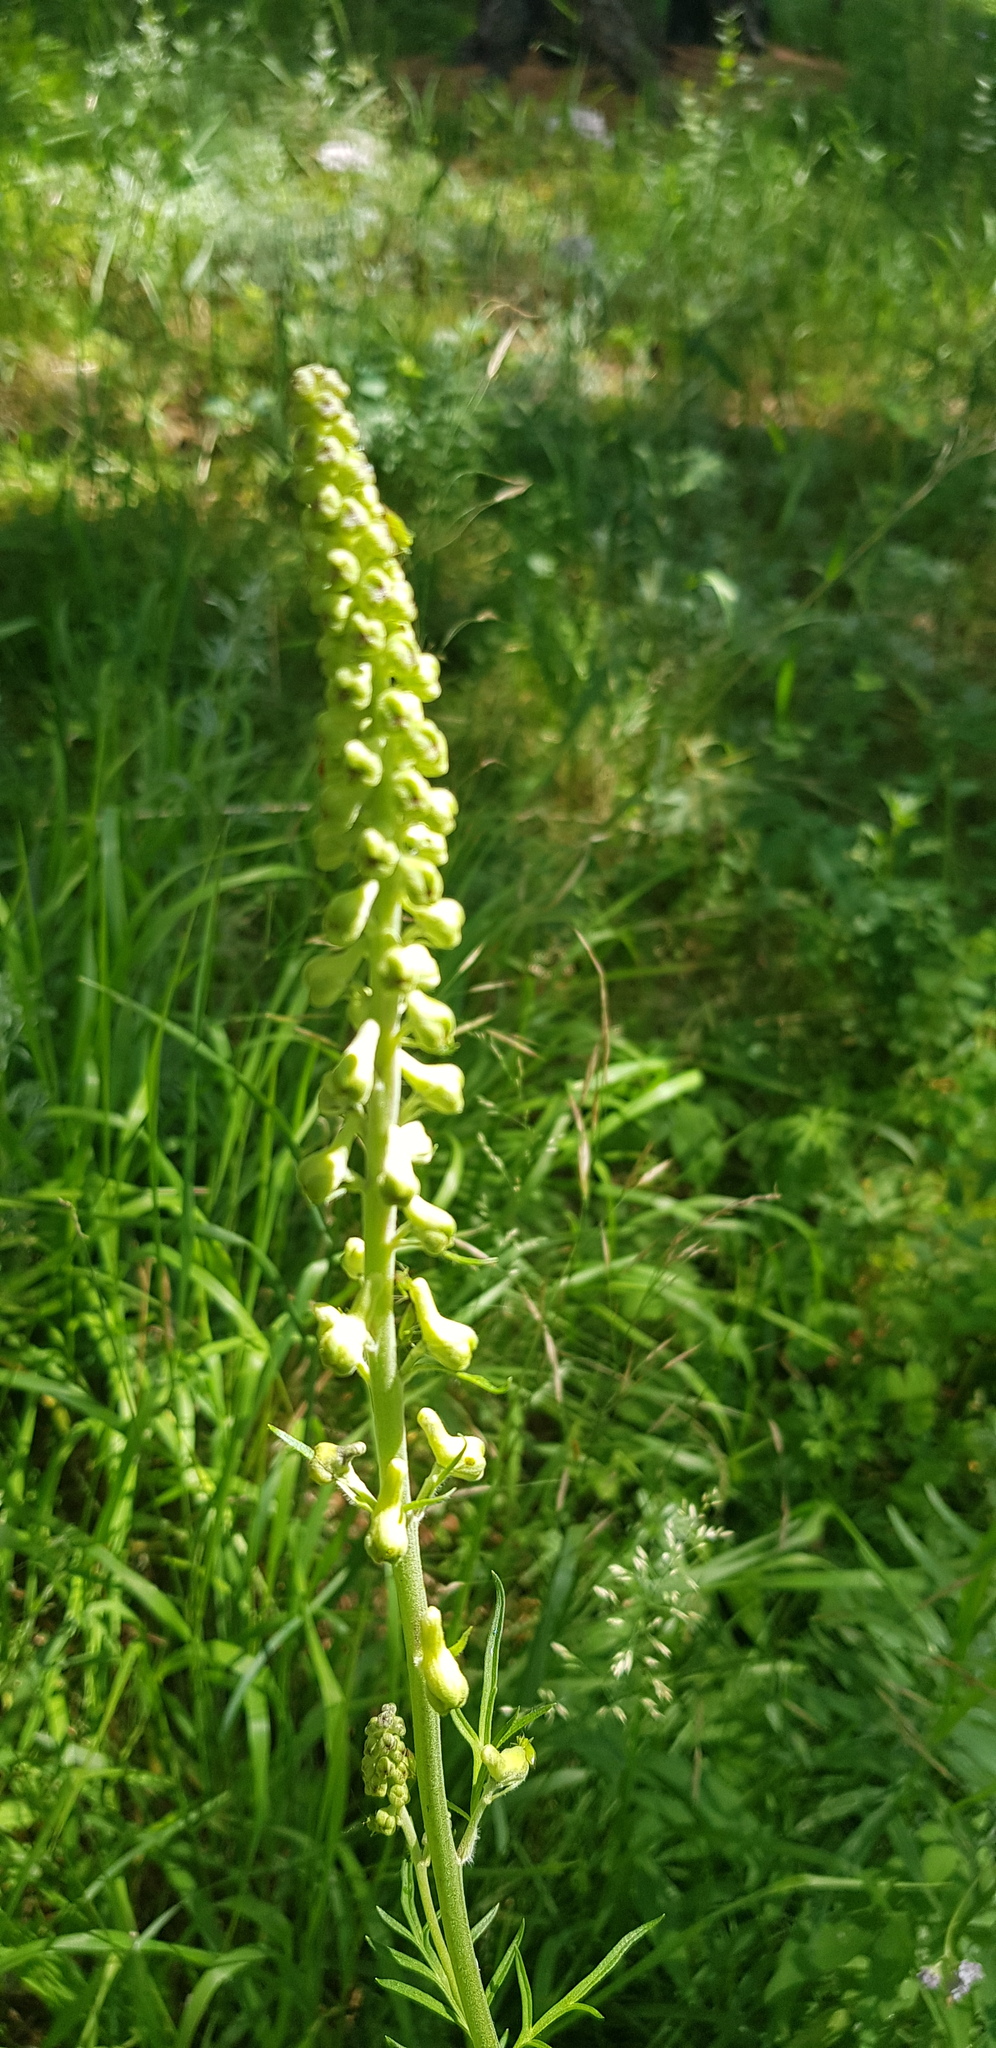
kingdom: Plantae
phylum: Tracheophyta
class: Magnoliopsida
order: Ranunculales
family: Ranunculaceae
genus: Aconitum
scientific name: Aconitum barbatum
